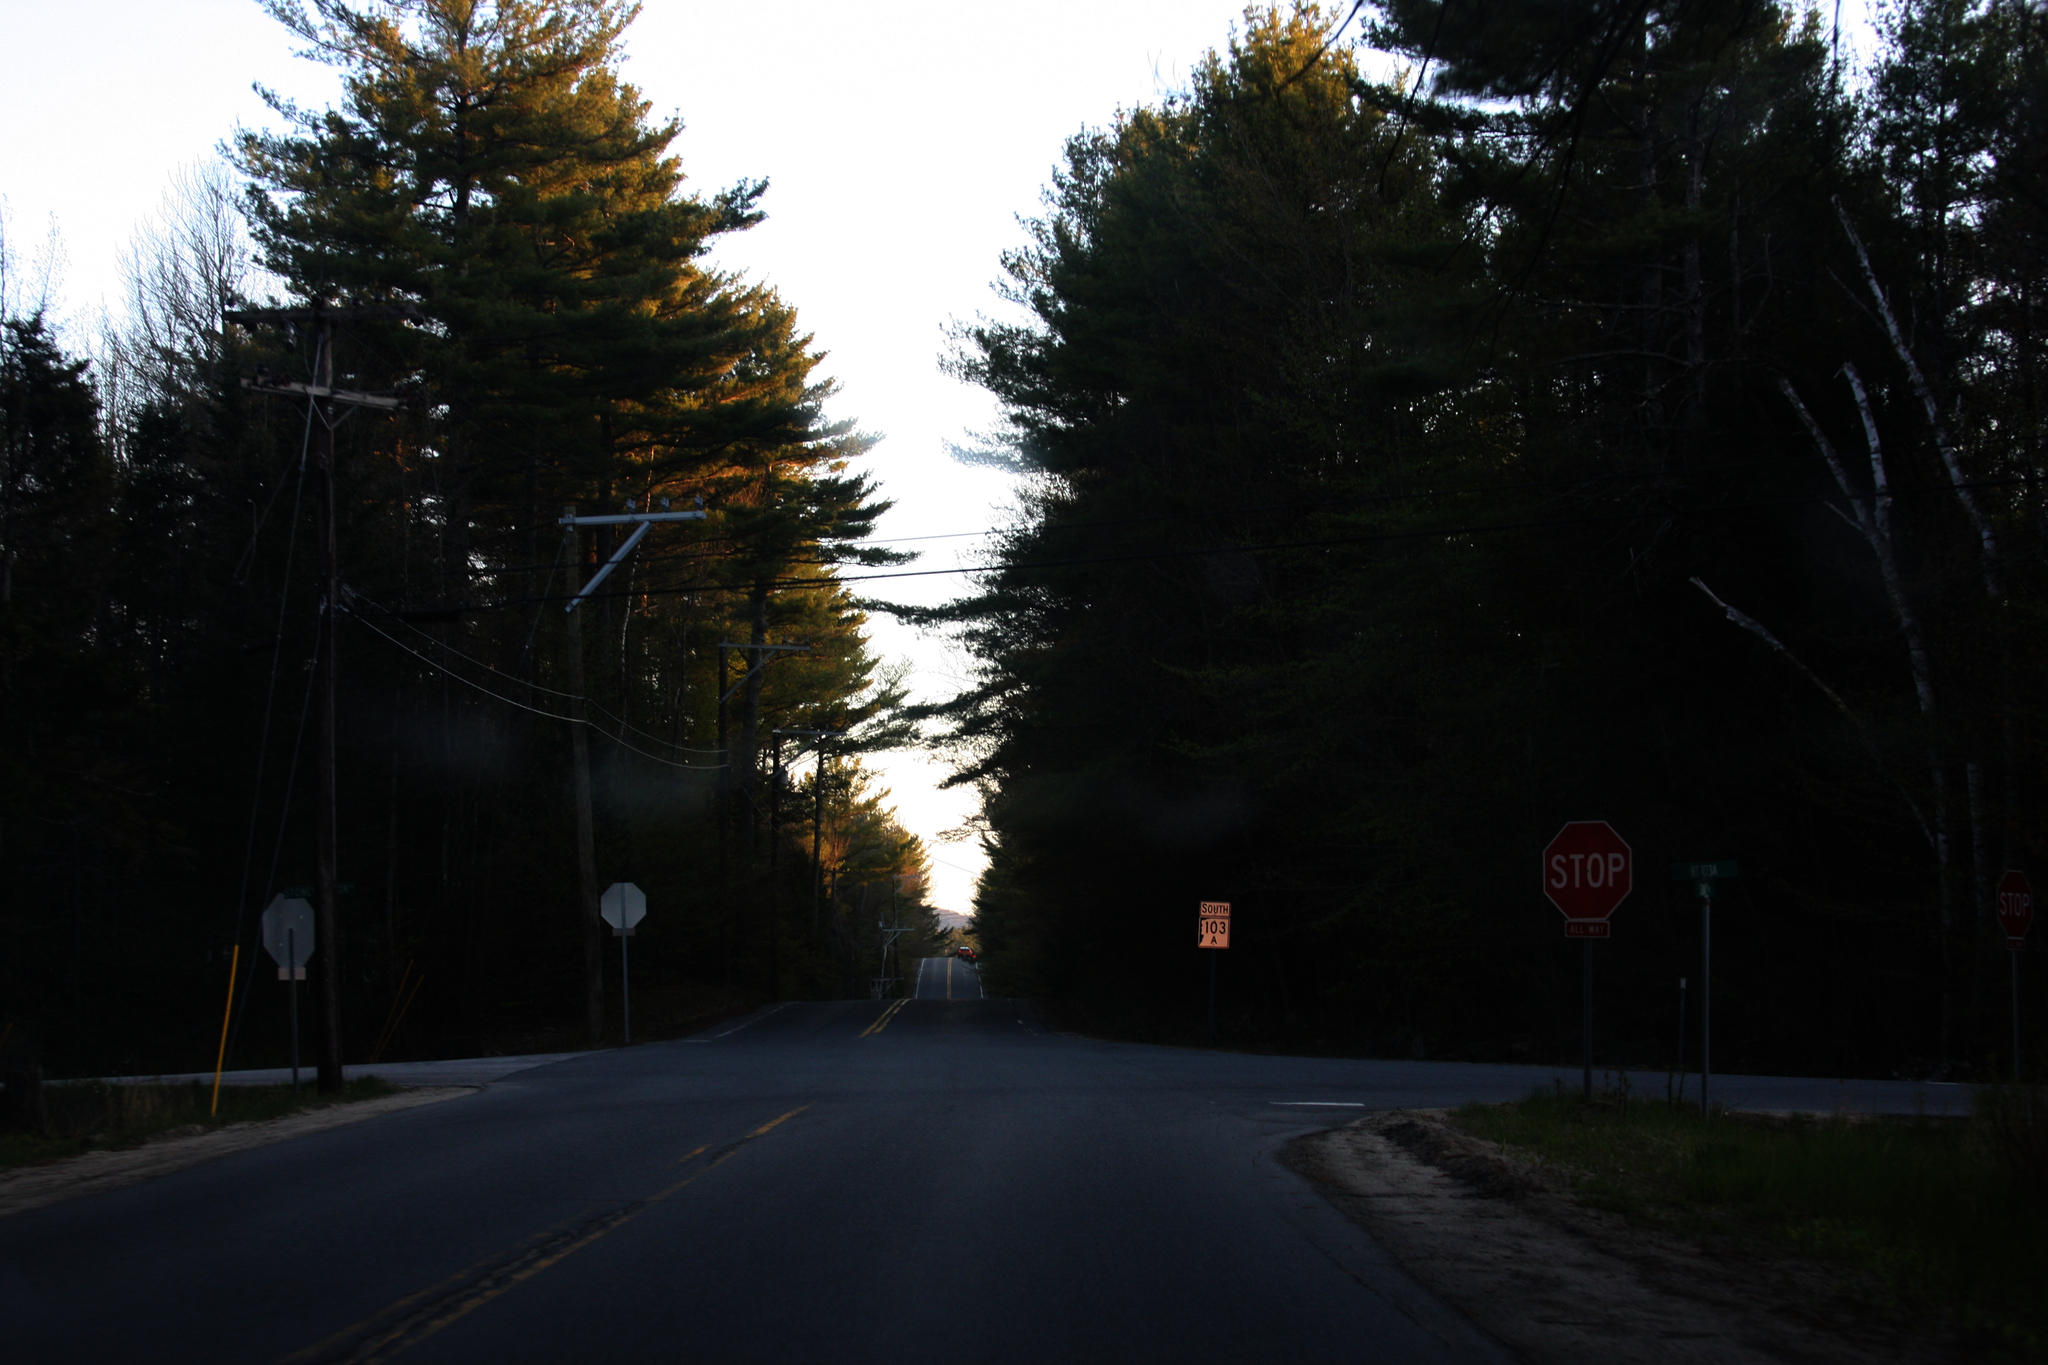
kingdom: Plantae
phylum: Tracheophyta
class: Pinopsida
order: Pinales
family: Pinaceae
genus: Pinus
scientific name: Pinus strobus
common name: Weymouth pine
